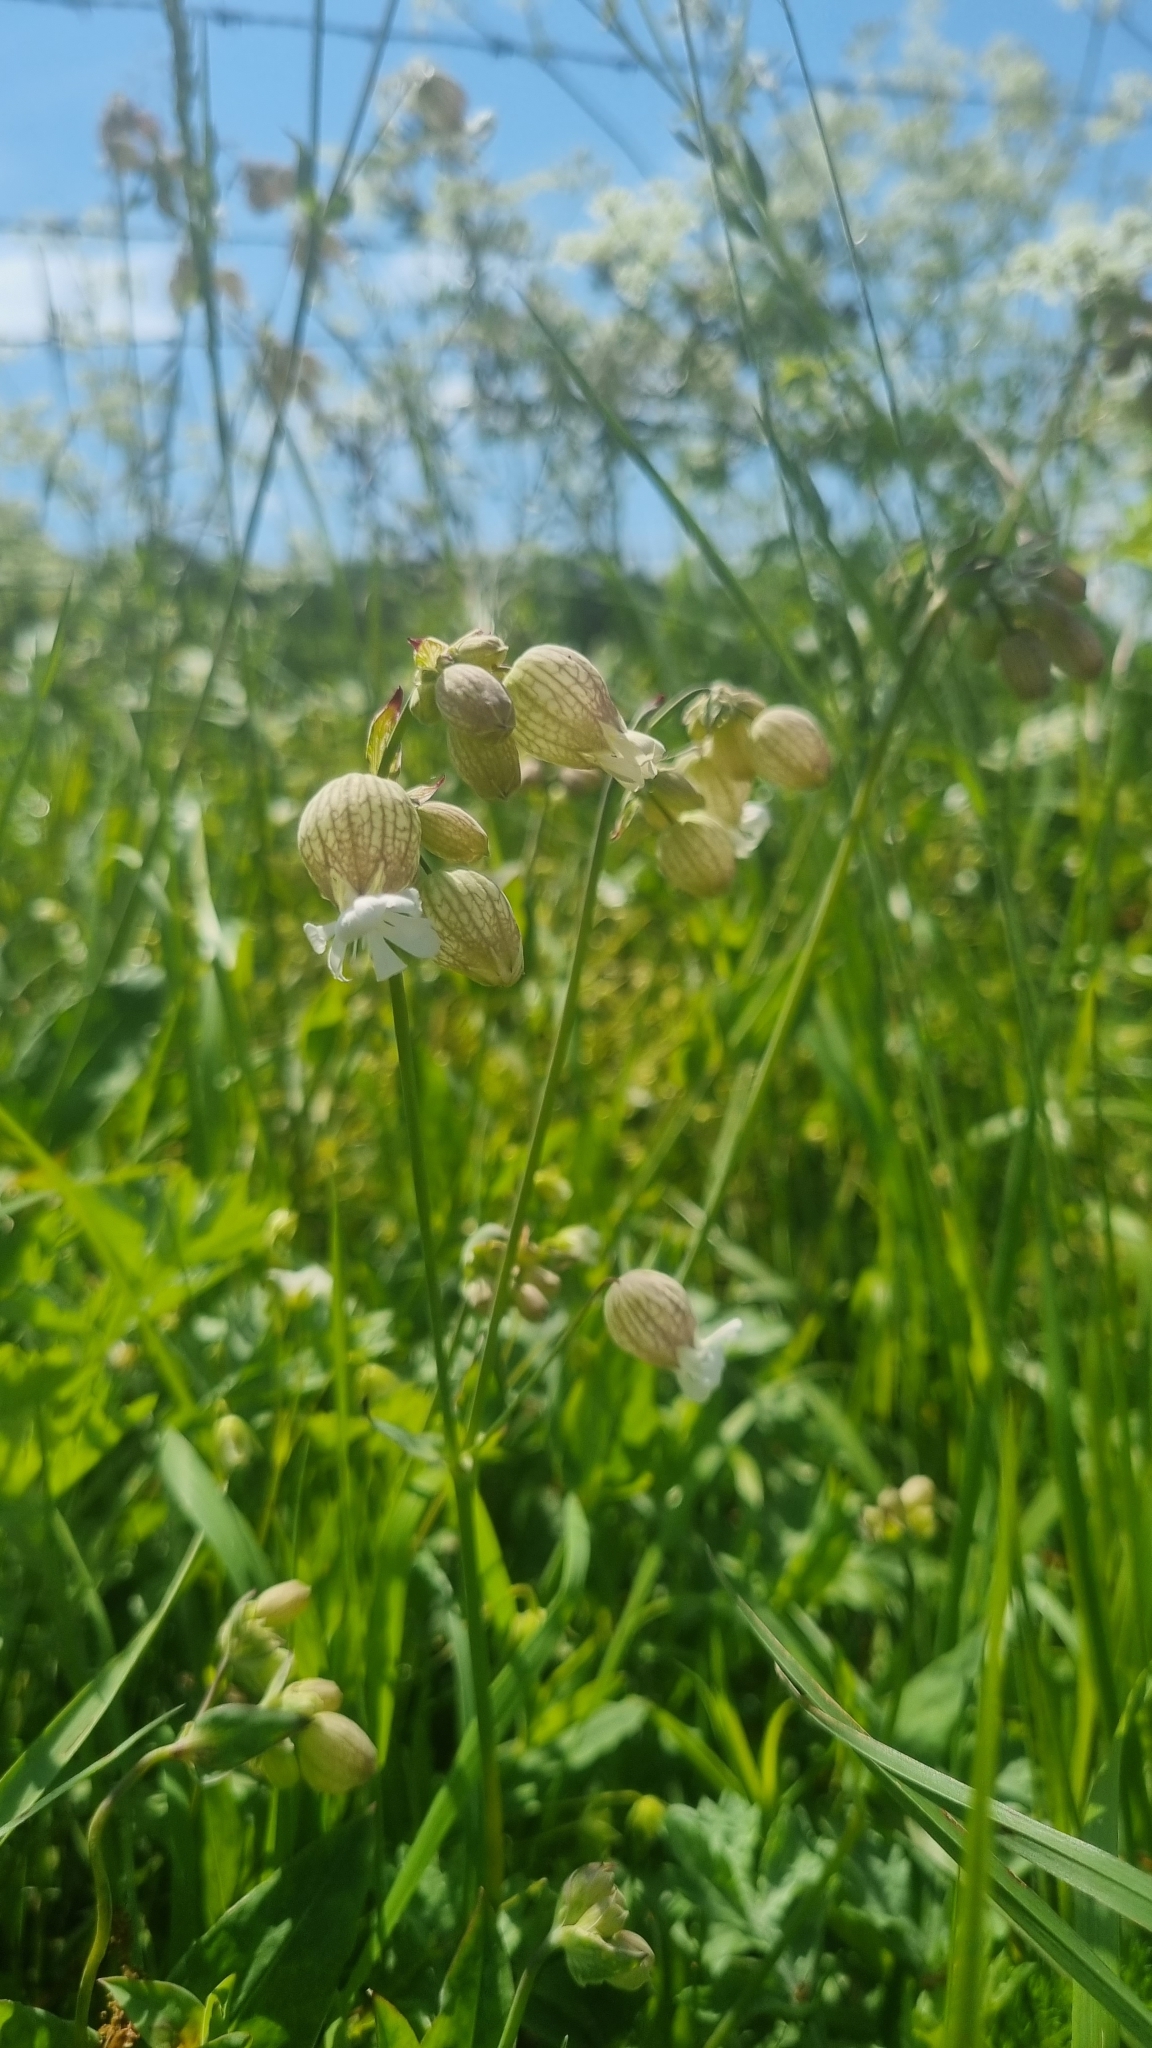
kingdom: Plantae
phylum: Tracheophyta
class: Magnoliopsida
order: Caryophyllales
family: Caryophyllaceae
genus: Silene
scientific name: Silene vulgaris
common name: Bladder campion
